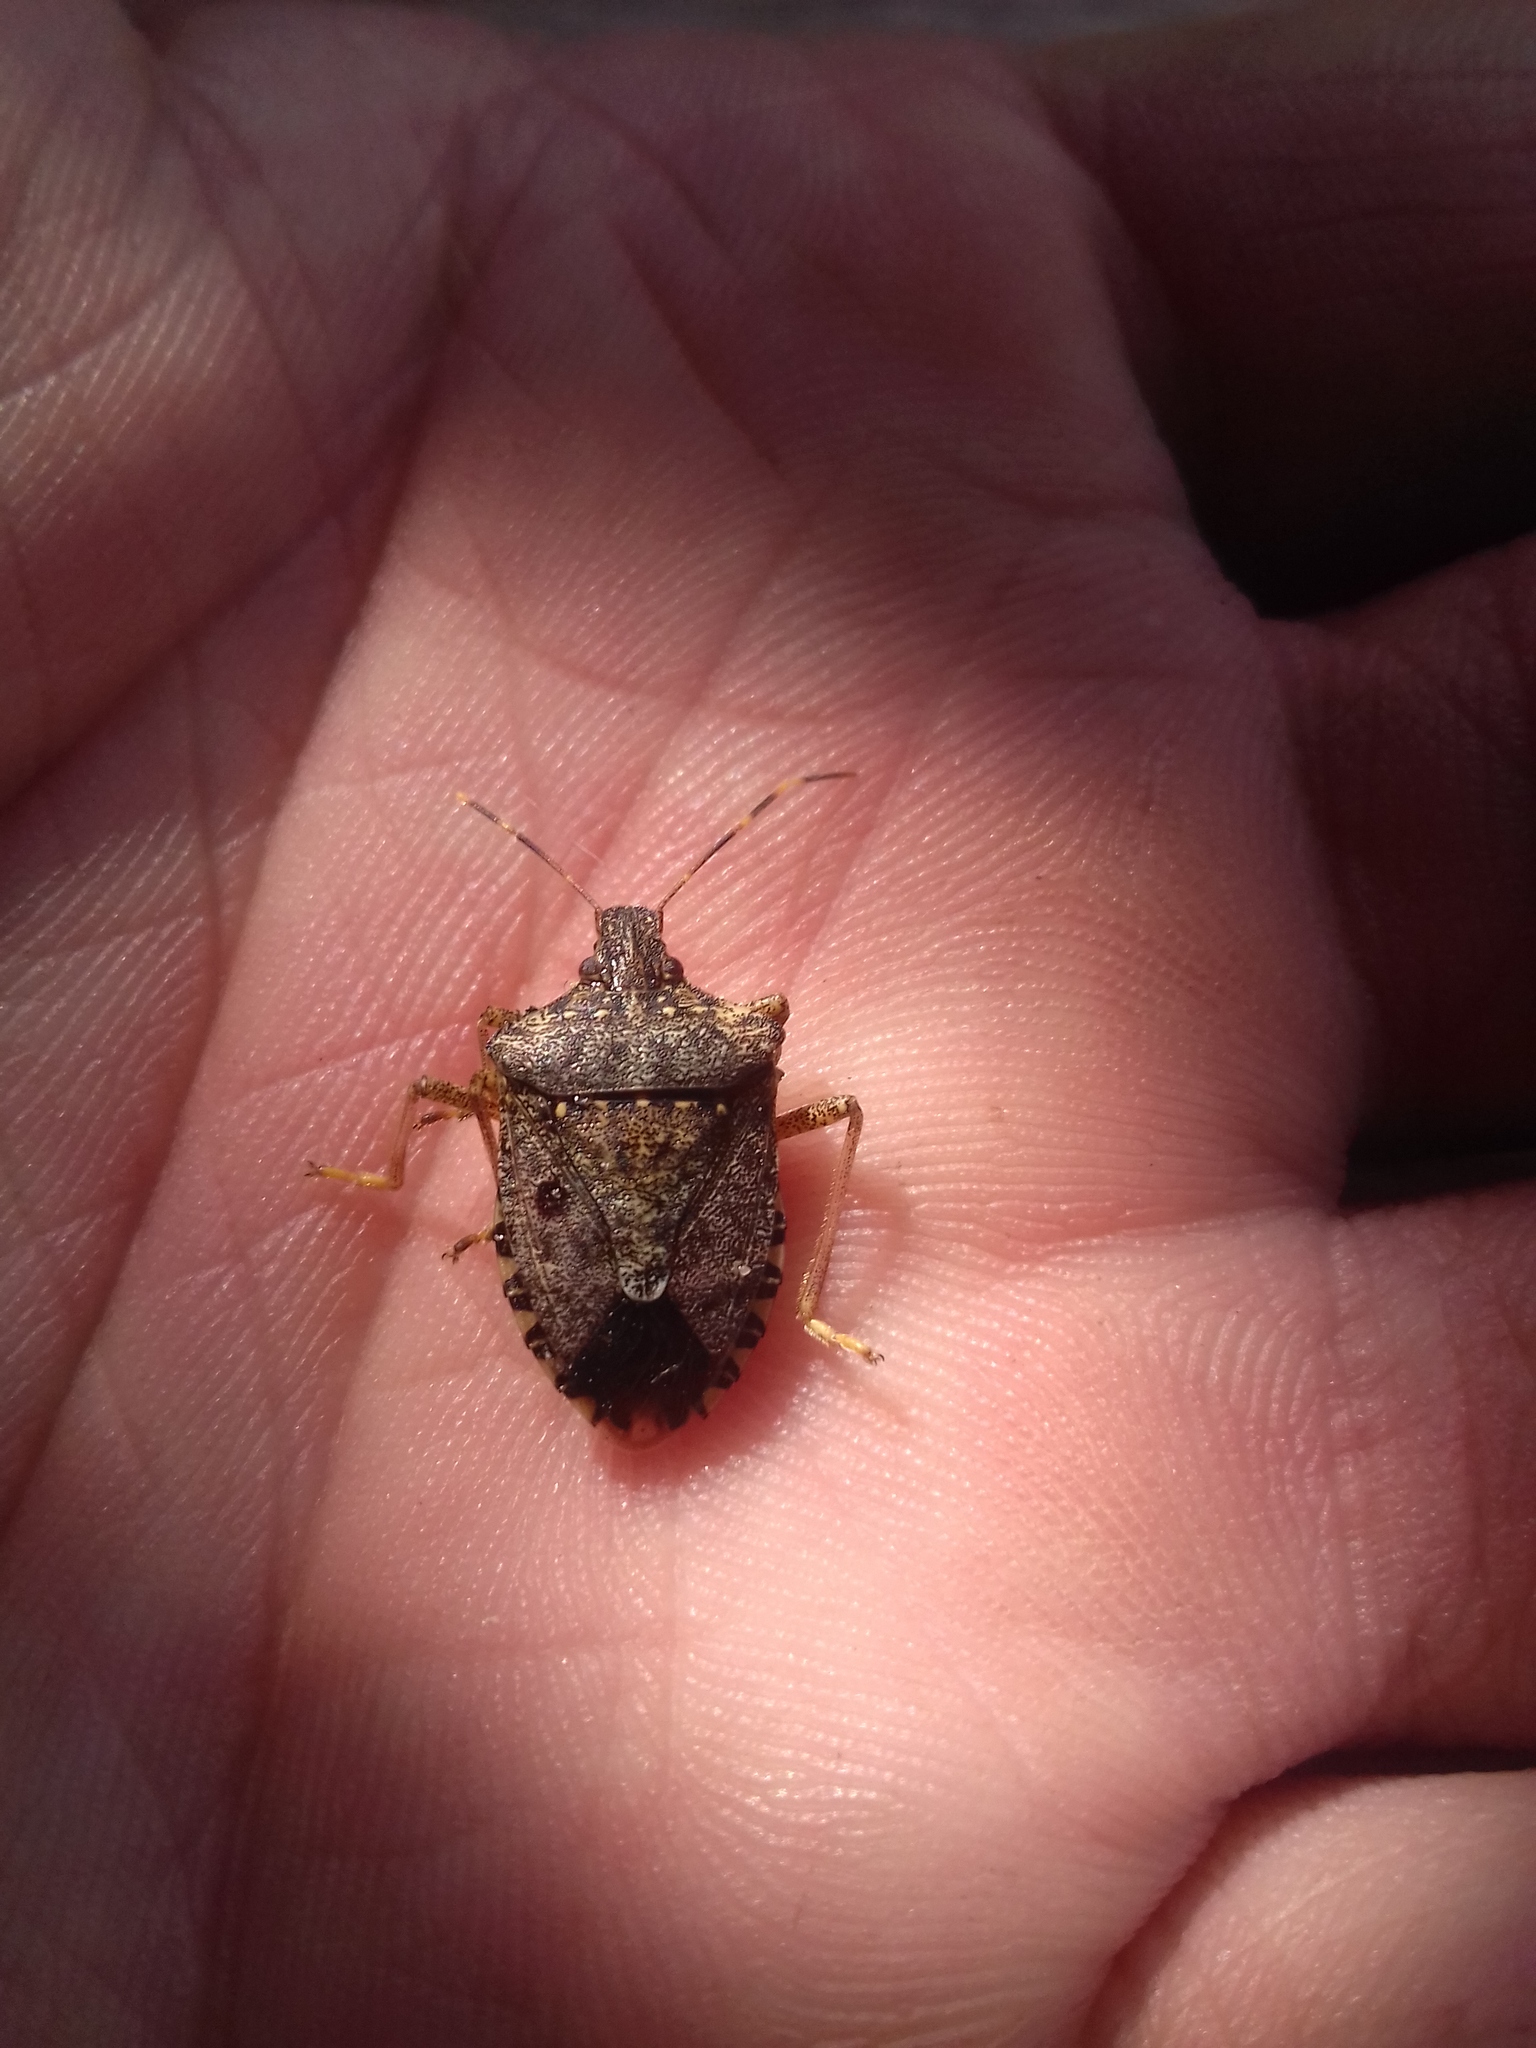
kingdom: Animalia
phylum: Arthropoda
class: Insecta
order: Hemiptera
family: Pentatomidae
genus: Halyomorpha
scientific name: Halyomorpha halys
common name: Brown marmorated stink bug
